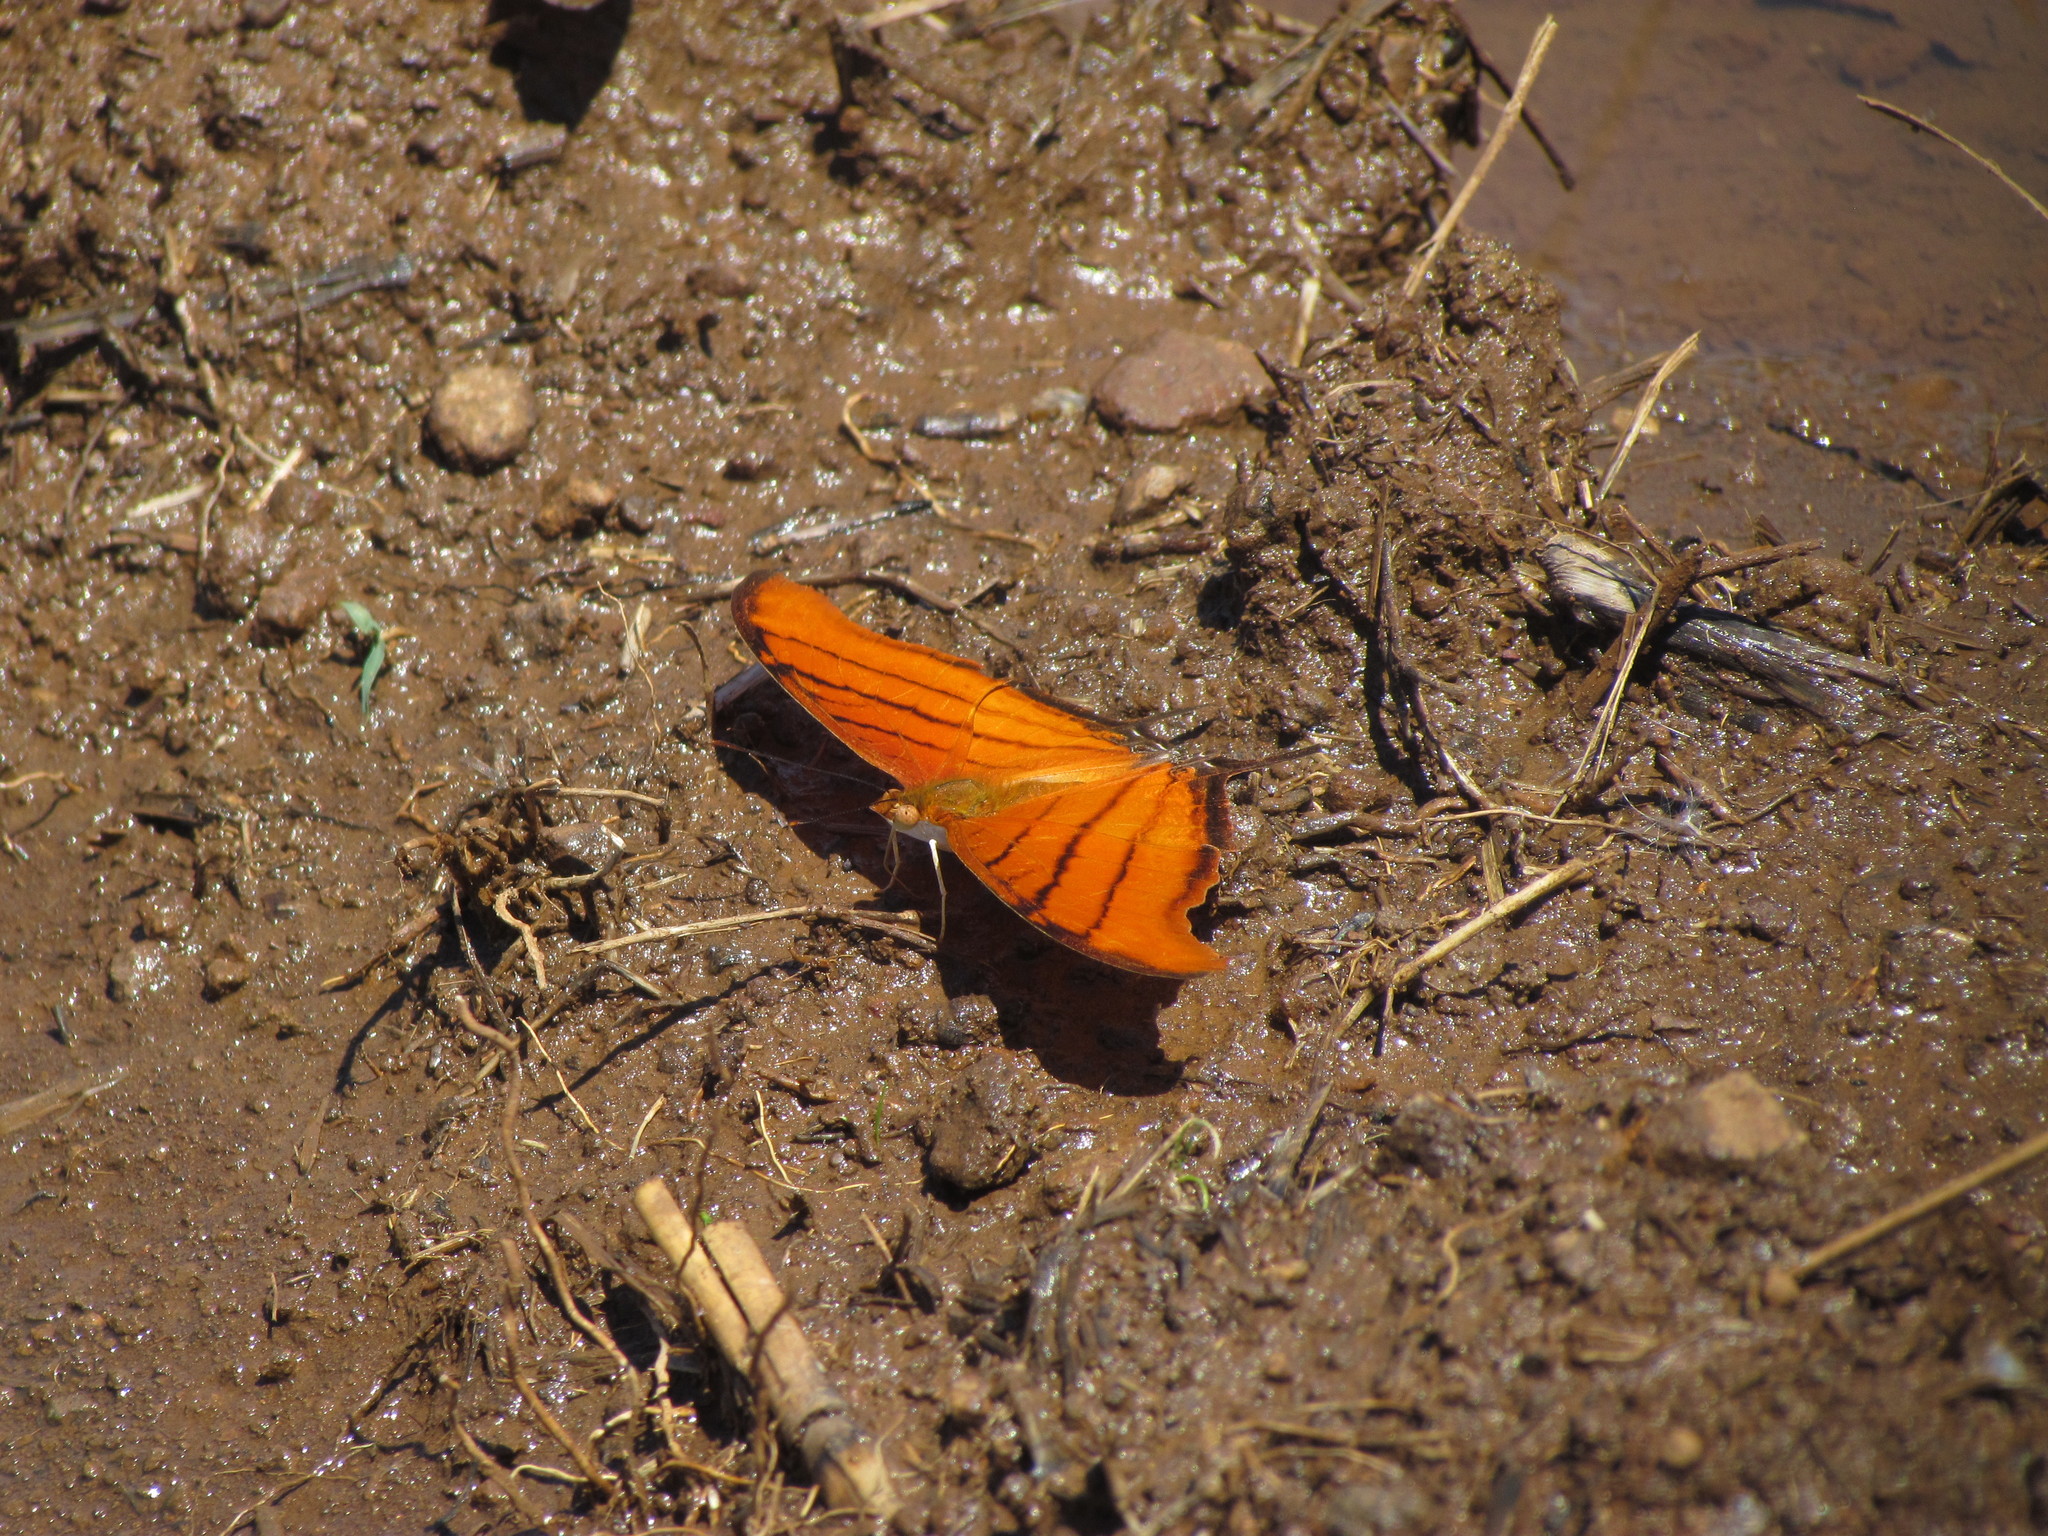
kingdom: Animalia
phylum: Arthropoda
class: Insecta
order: Lepidoptera
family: Nymphalidae
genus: Marpesia
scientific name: Marpesia petreus
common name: Red dagger wing
